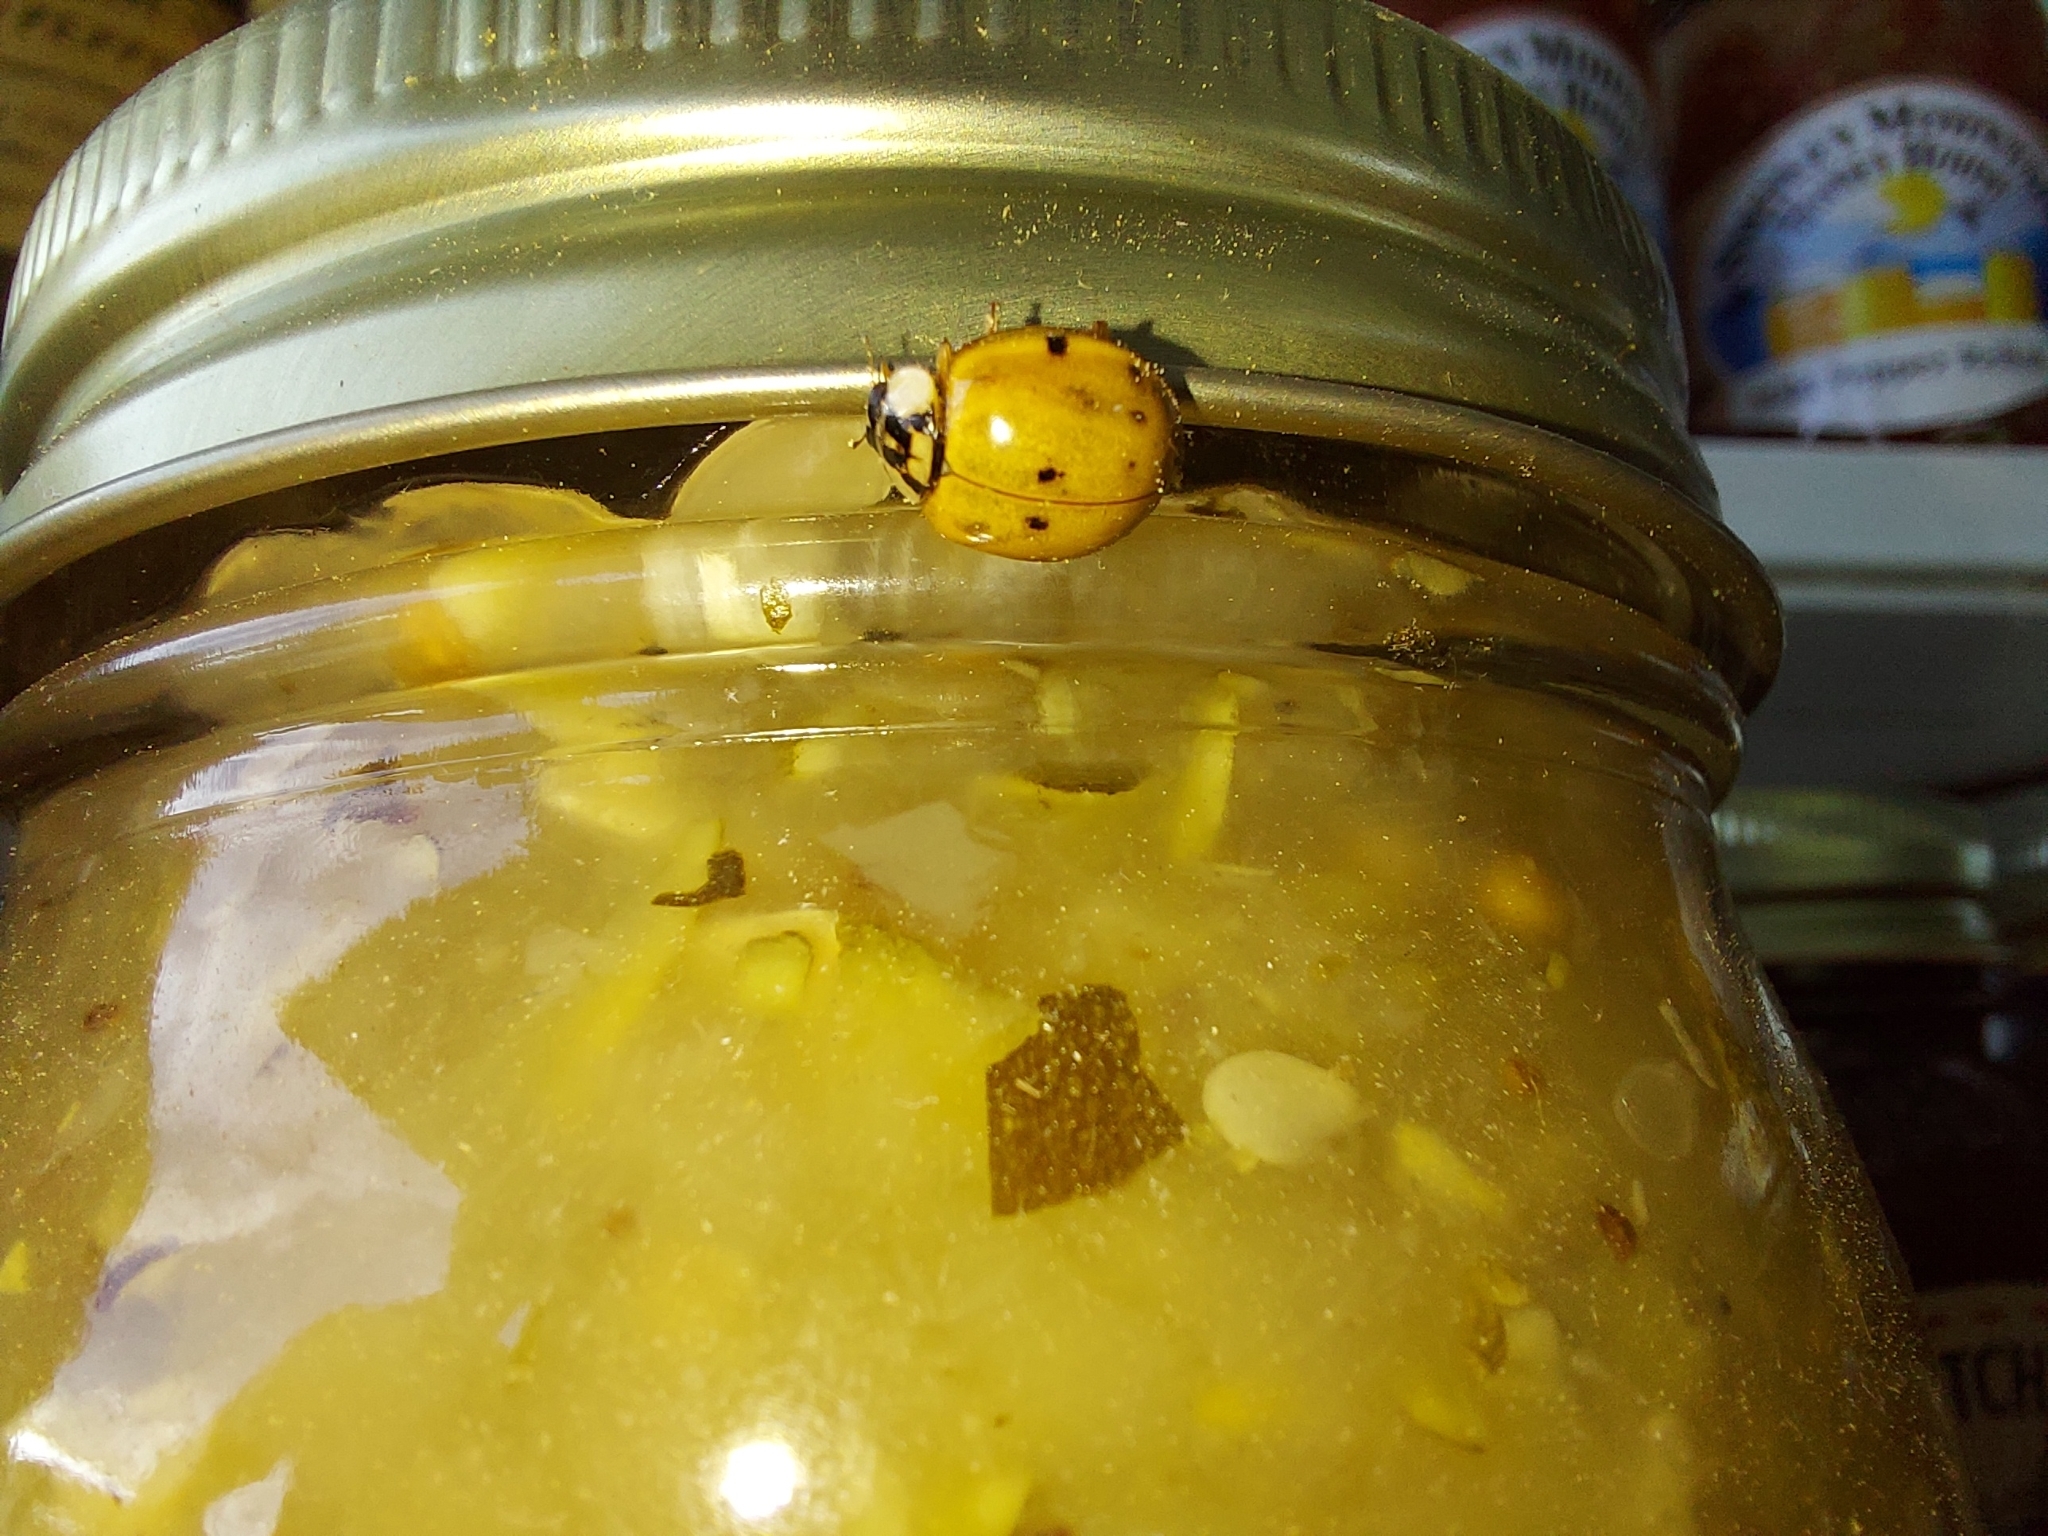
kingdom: Animalia
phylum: Arthropoda
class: Insecta
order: Coleoptera
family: Coccinellidae
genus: Harmonia
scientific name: Harmonia axyridis
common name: Harlequin ladybird
